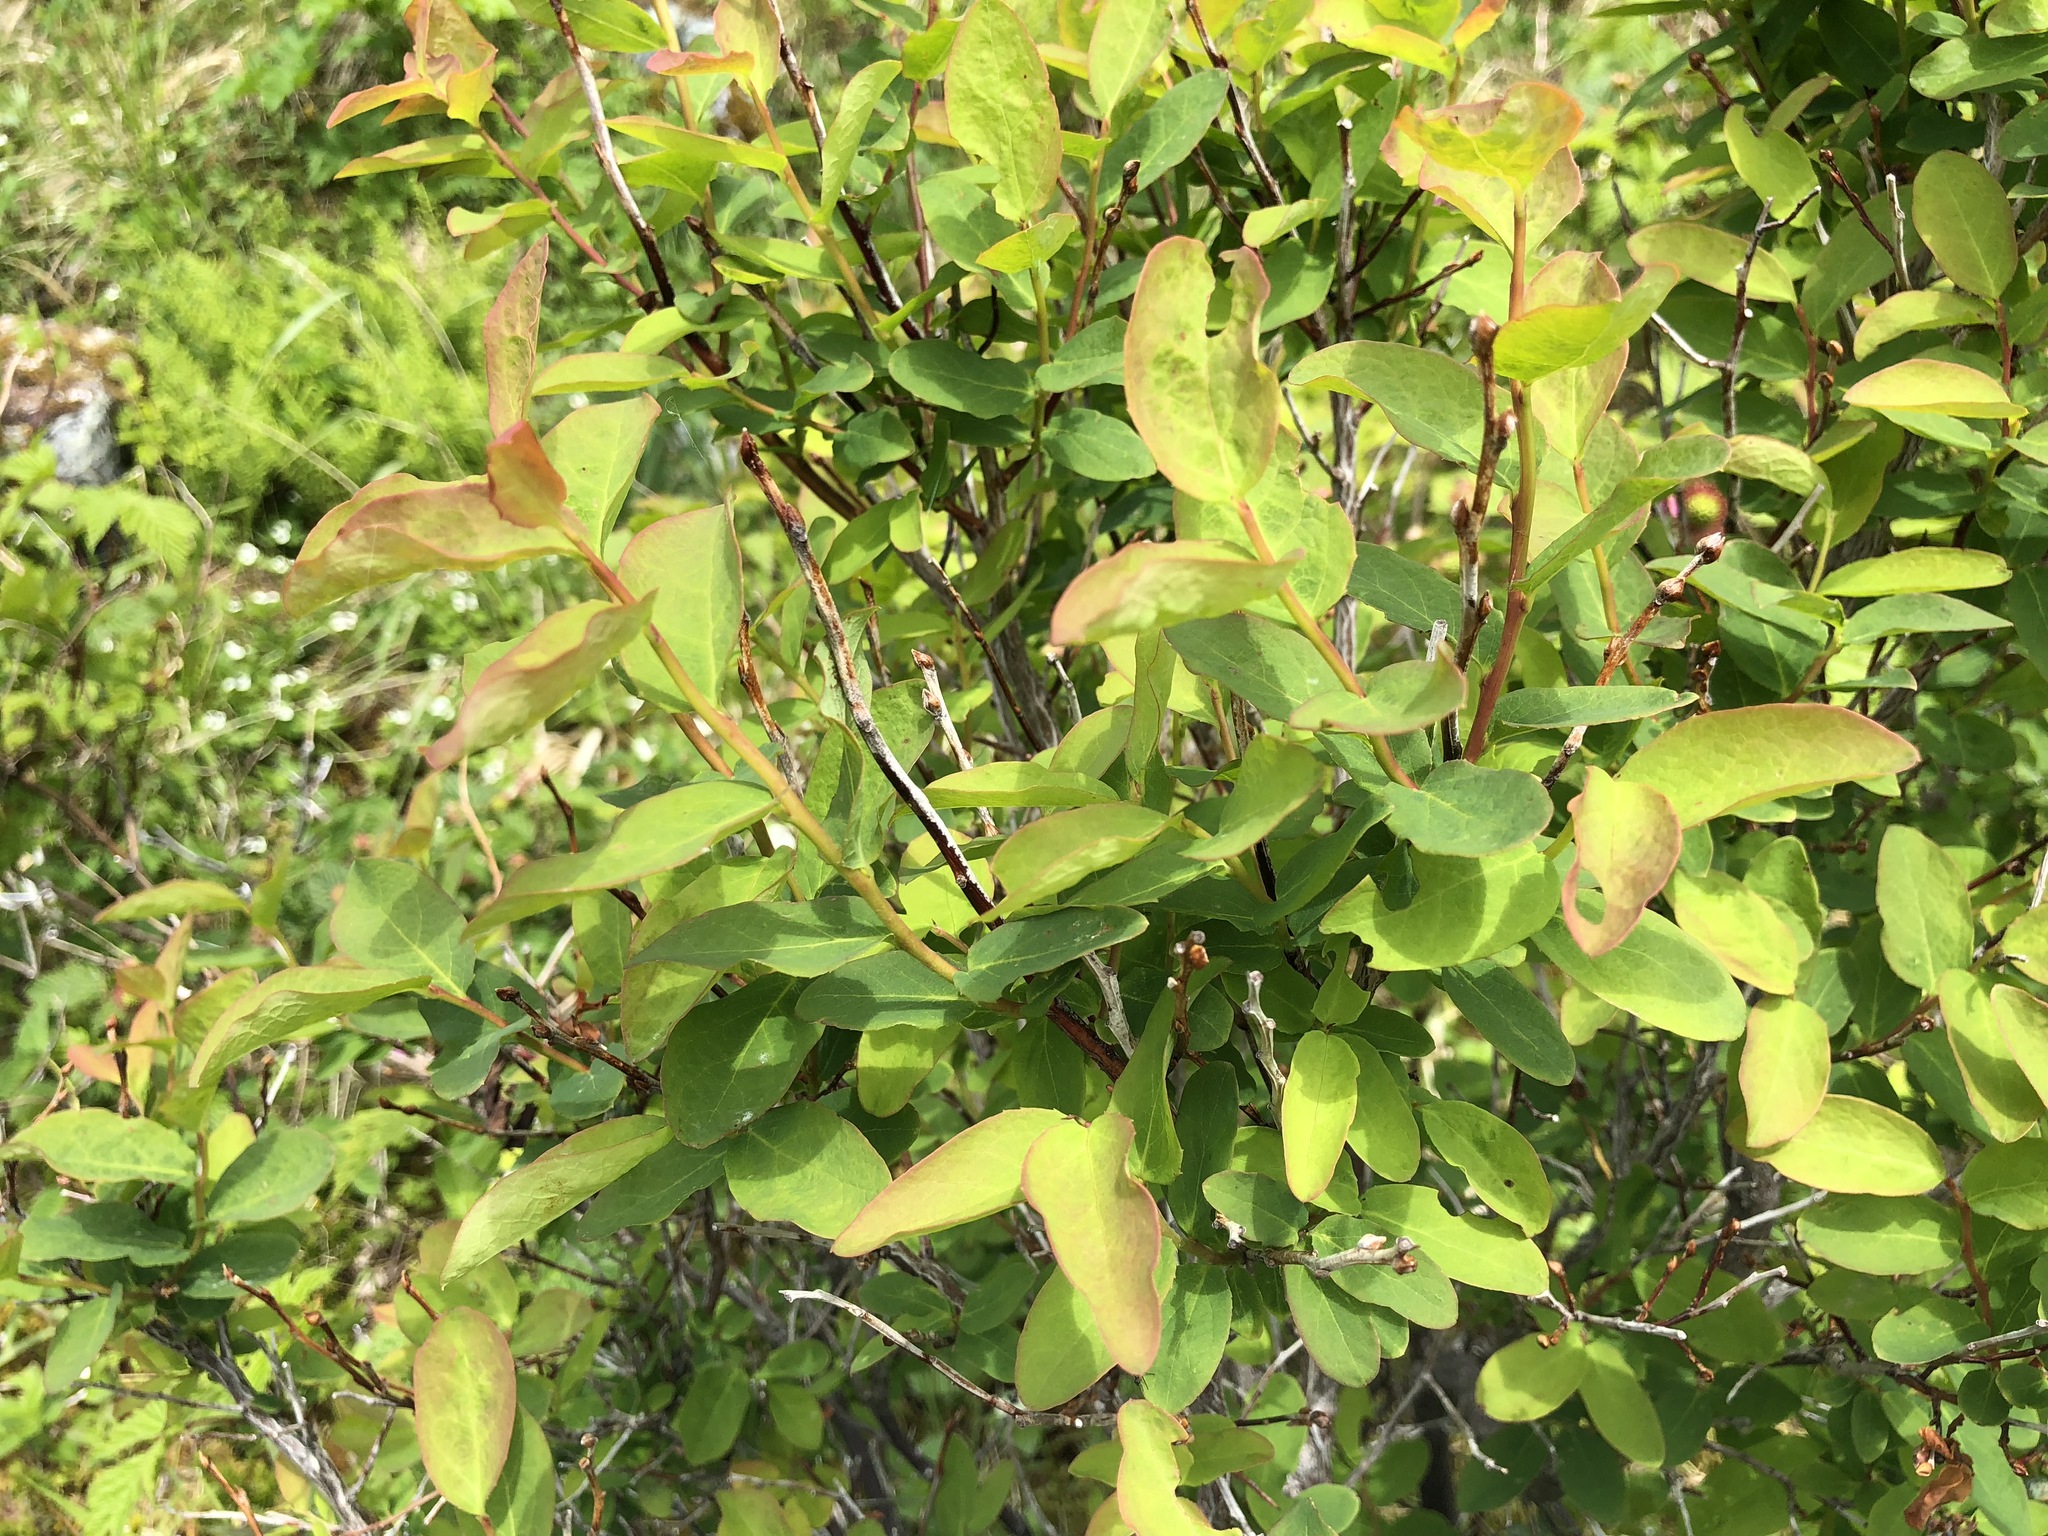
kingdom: Plantae
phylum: Tracheophyta
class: Magnoliopsida
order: Ericales
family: Ericaceae
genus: Vaccinium
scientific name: Vaccinium ovalifolium
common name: Early blueberry
